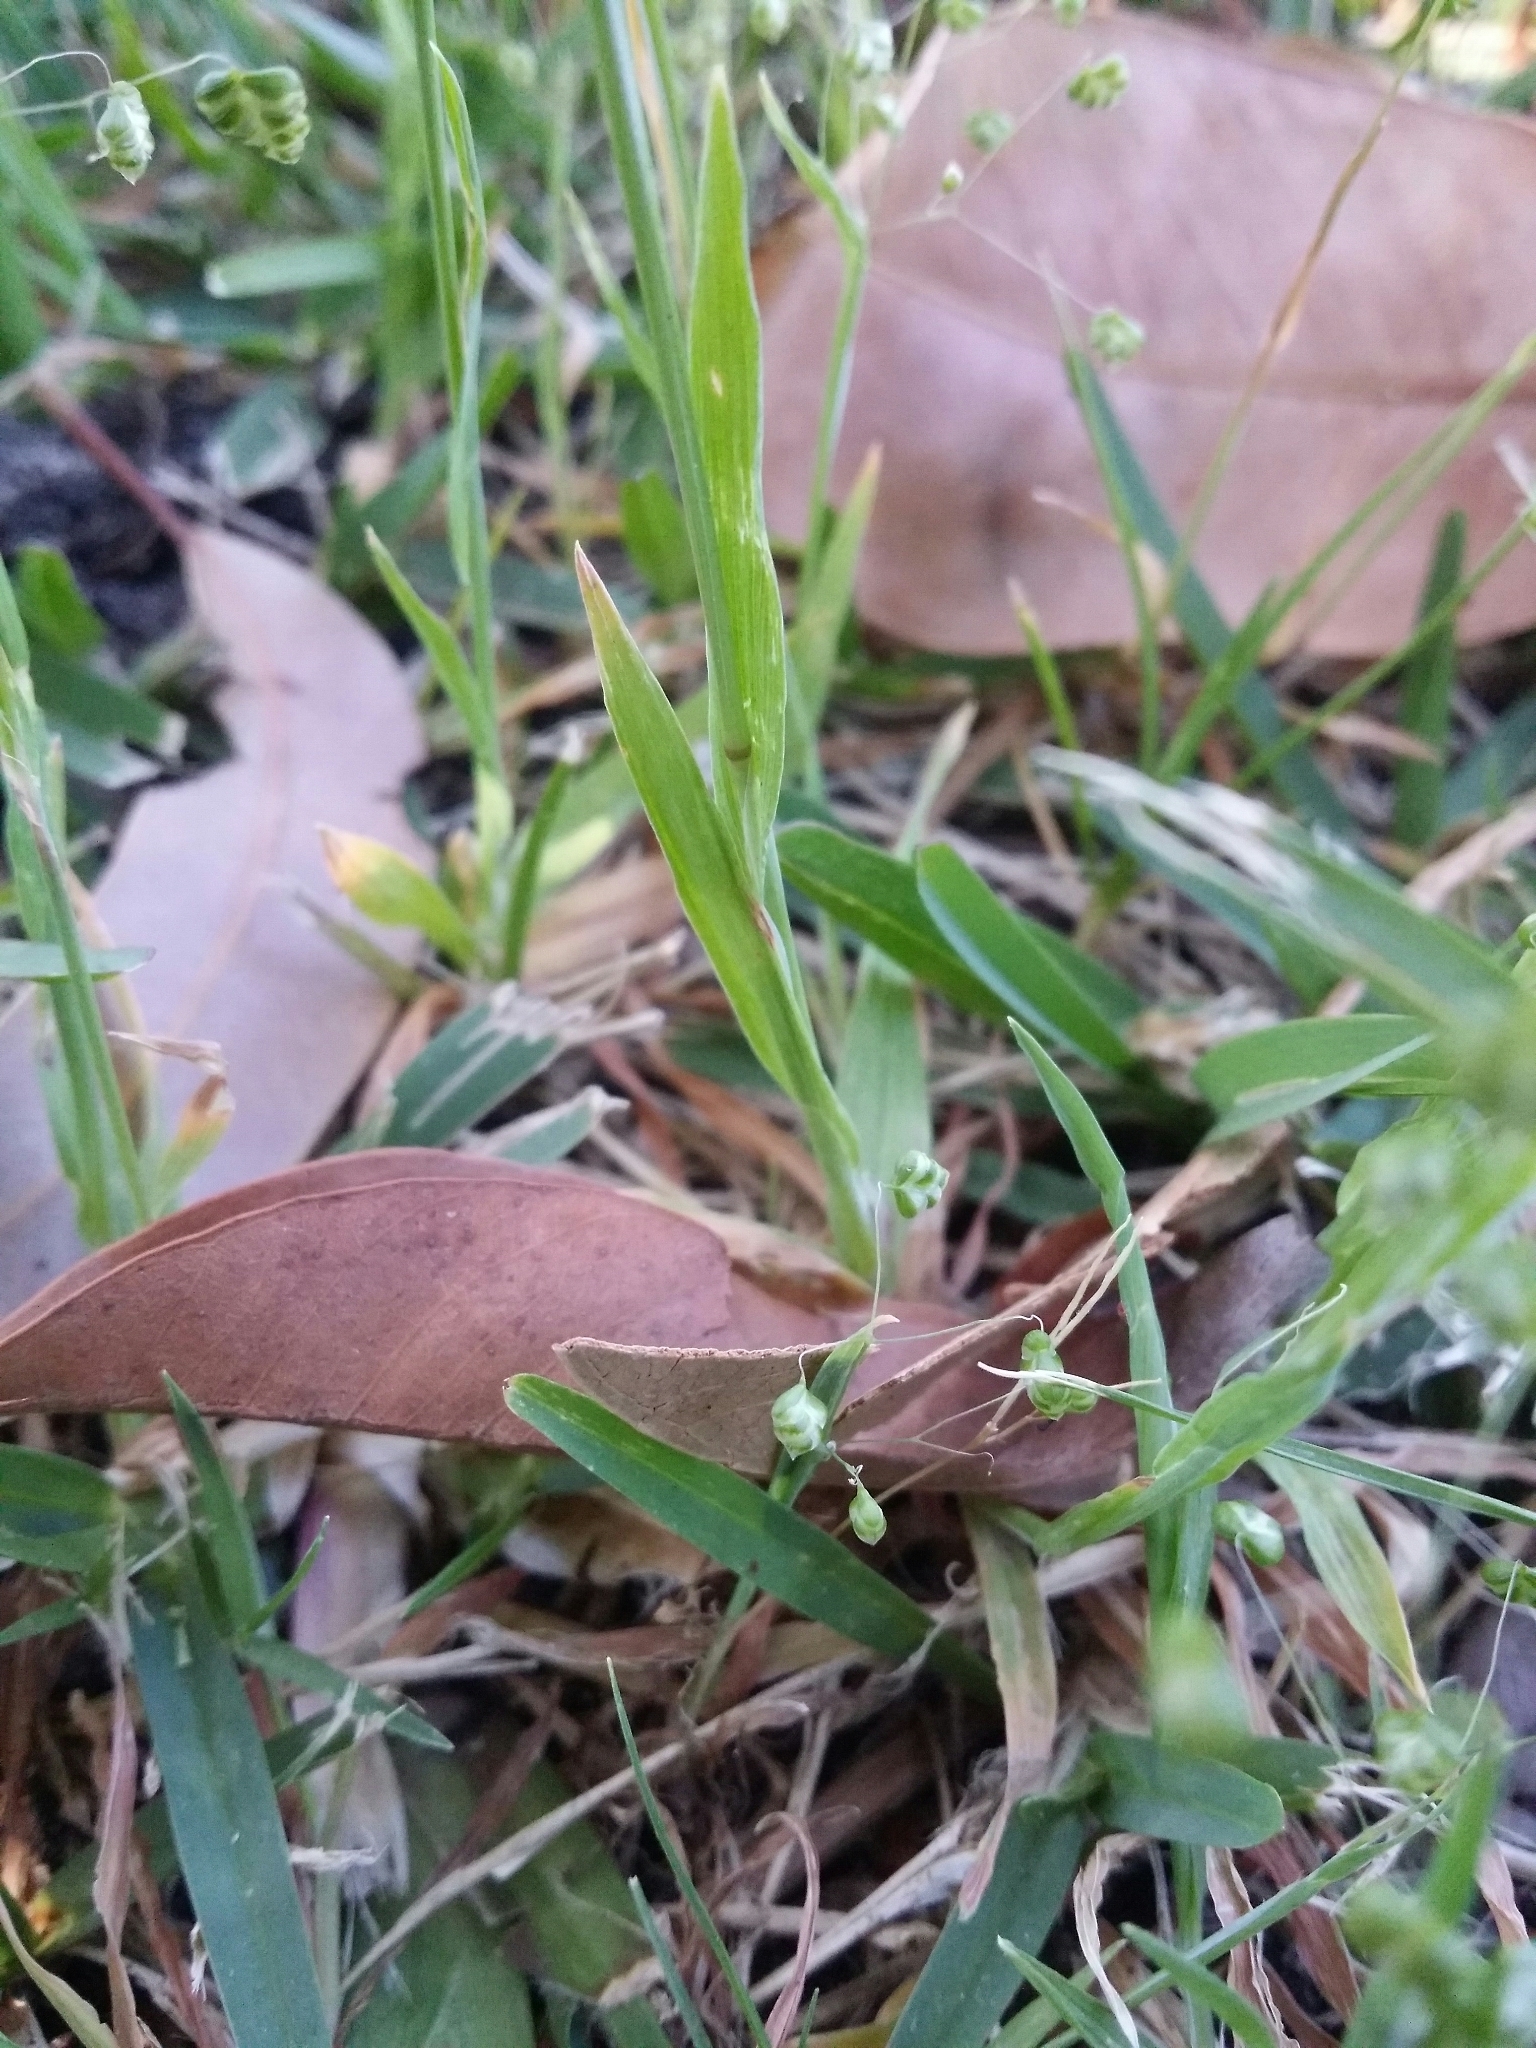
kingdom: Plantae
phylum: Tracheophyta
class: Liliopsida
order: Poales
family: Poaceae
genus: Briza
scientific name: Briza minor
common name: Lesser quaking-grass
